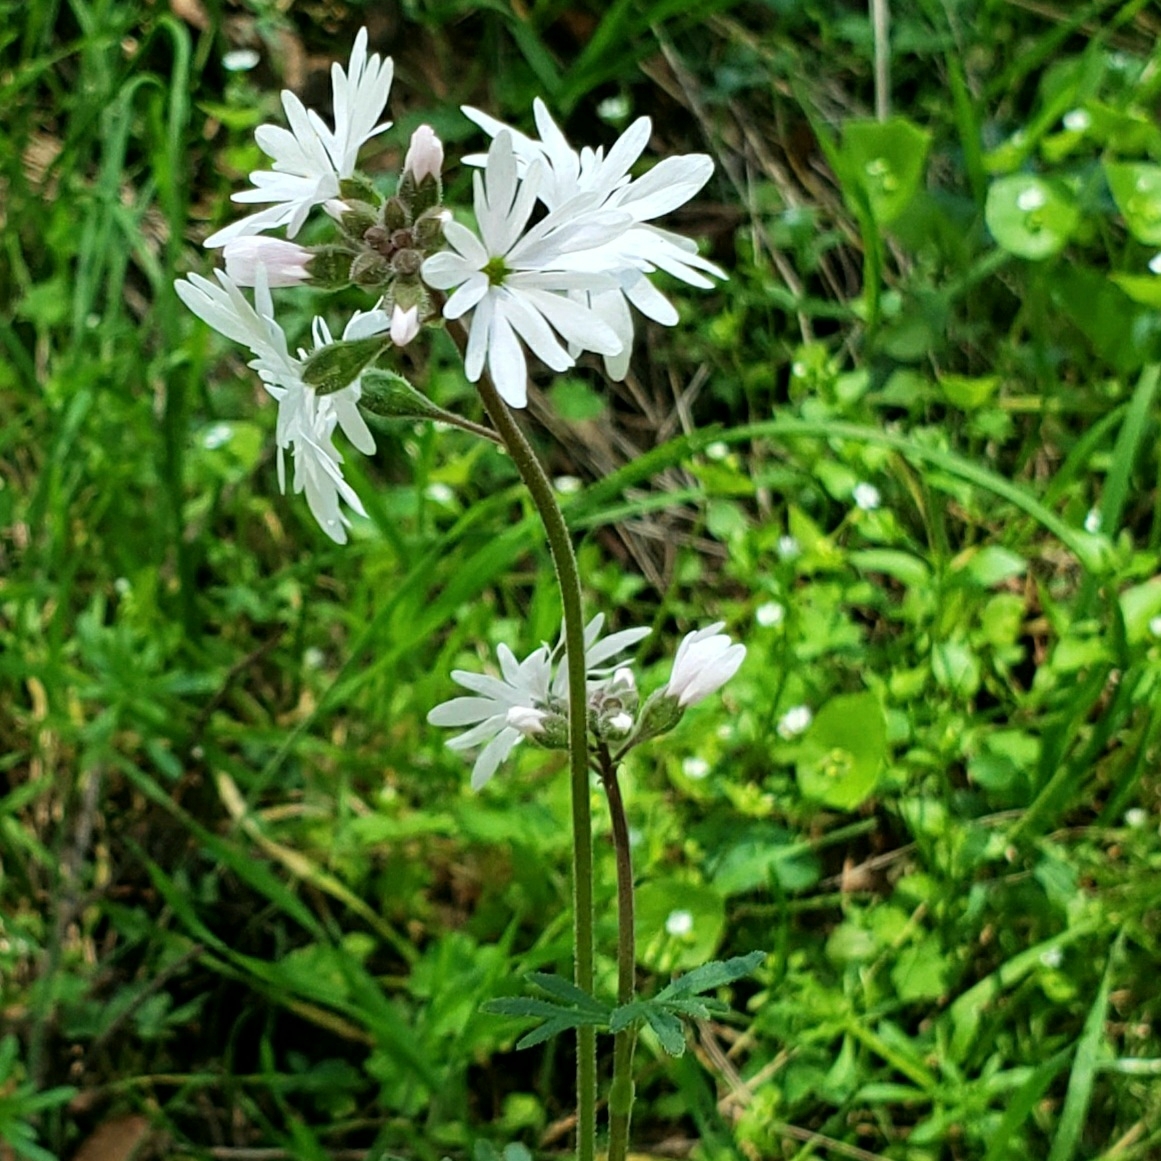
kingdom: Plantae
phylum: Tracheophyta
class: Magnoliopsida
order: Saxifragales
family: Saxifragaceae
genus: Lithophragma
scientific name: Lithophragma parviflorum
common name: Small-flowered fringe-cup
